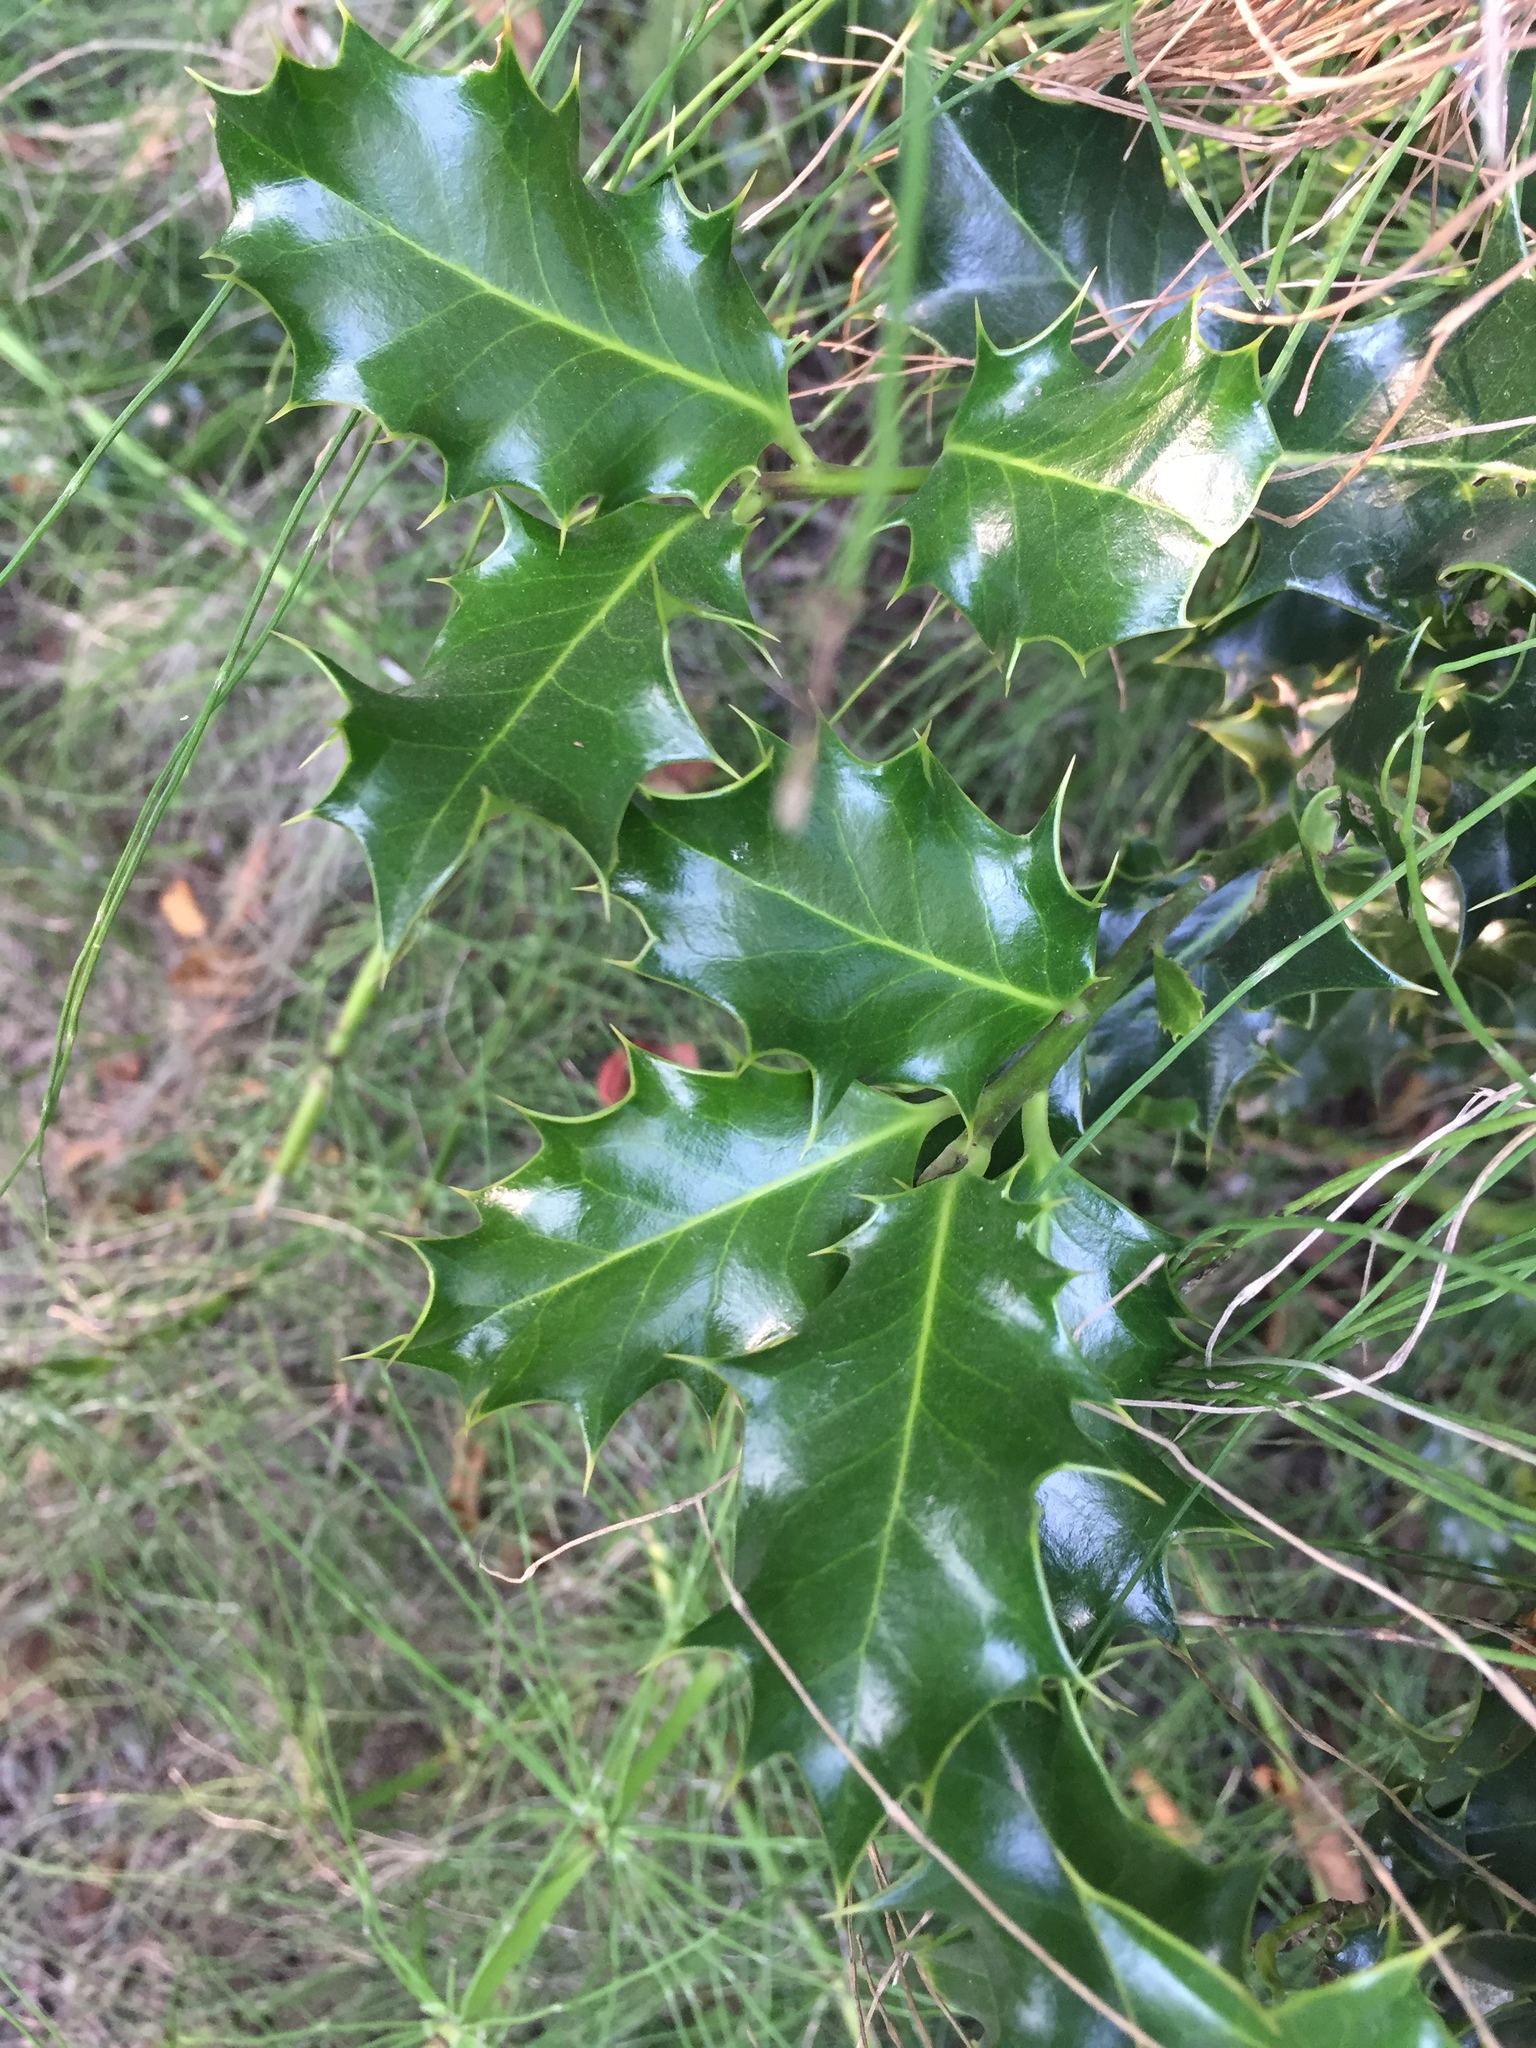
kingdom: Plantae
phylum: Tracheophyta
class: Magnoliopsida
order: Aquifoliales
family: Aquifoliaceae
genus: Ilex
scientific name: Ilex aquifolium
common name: English holly
